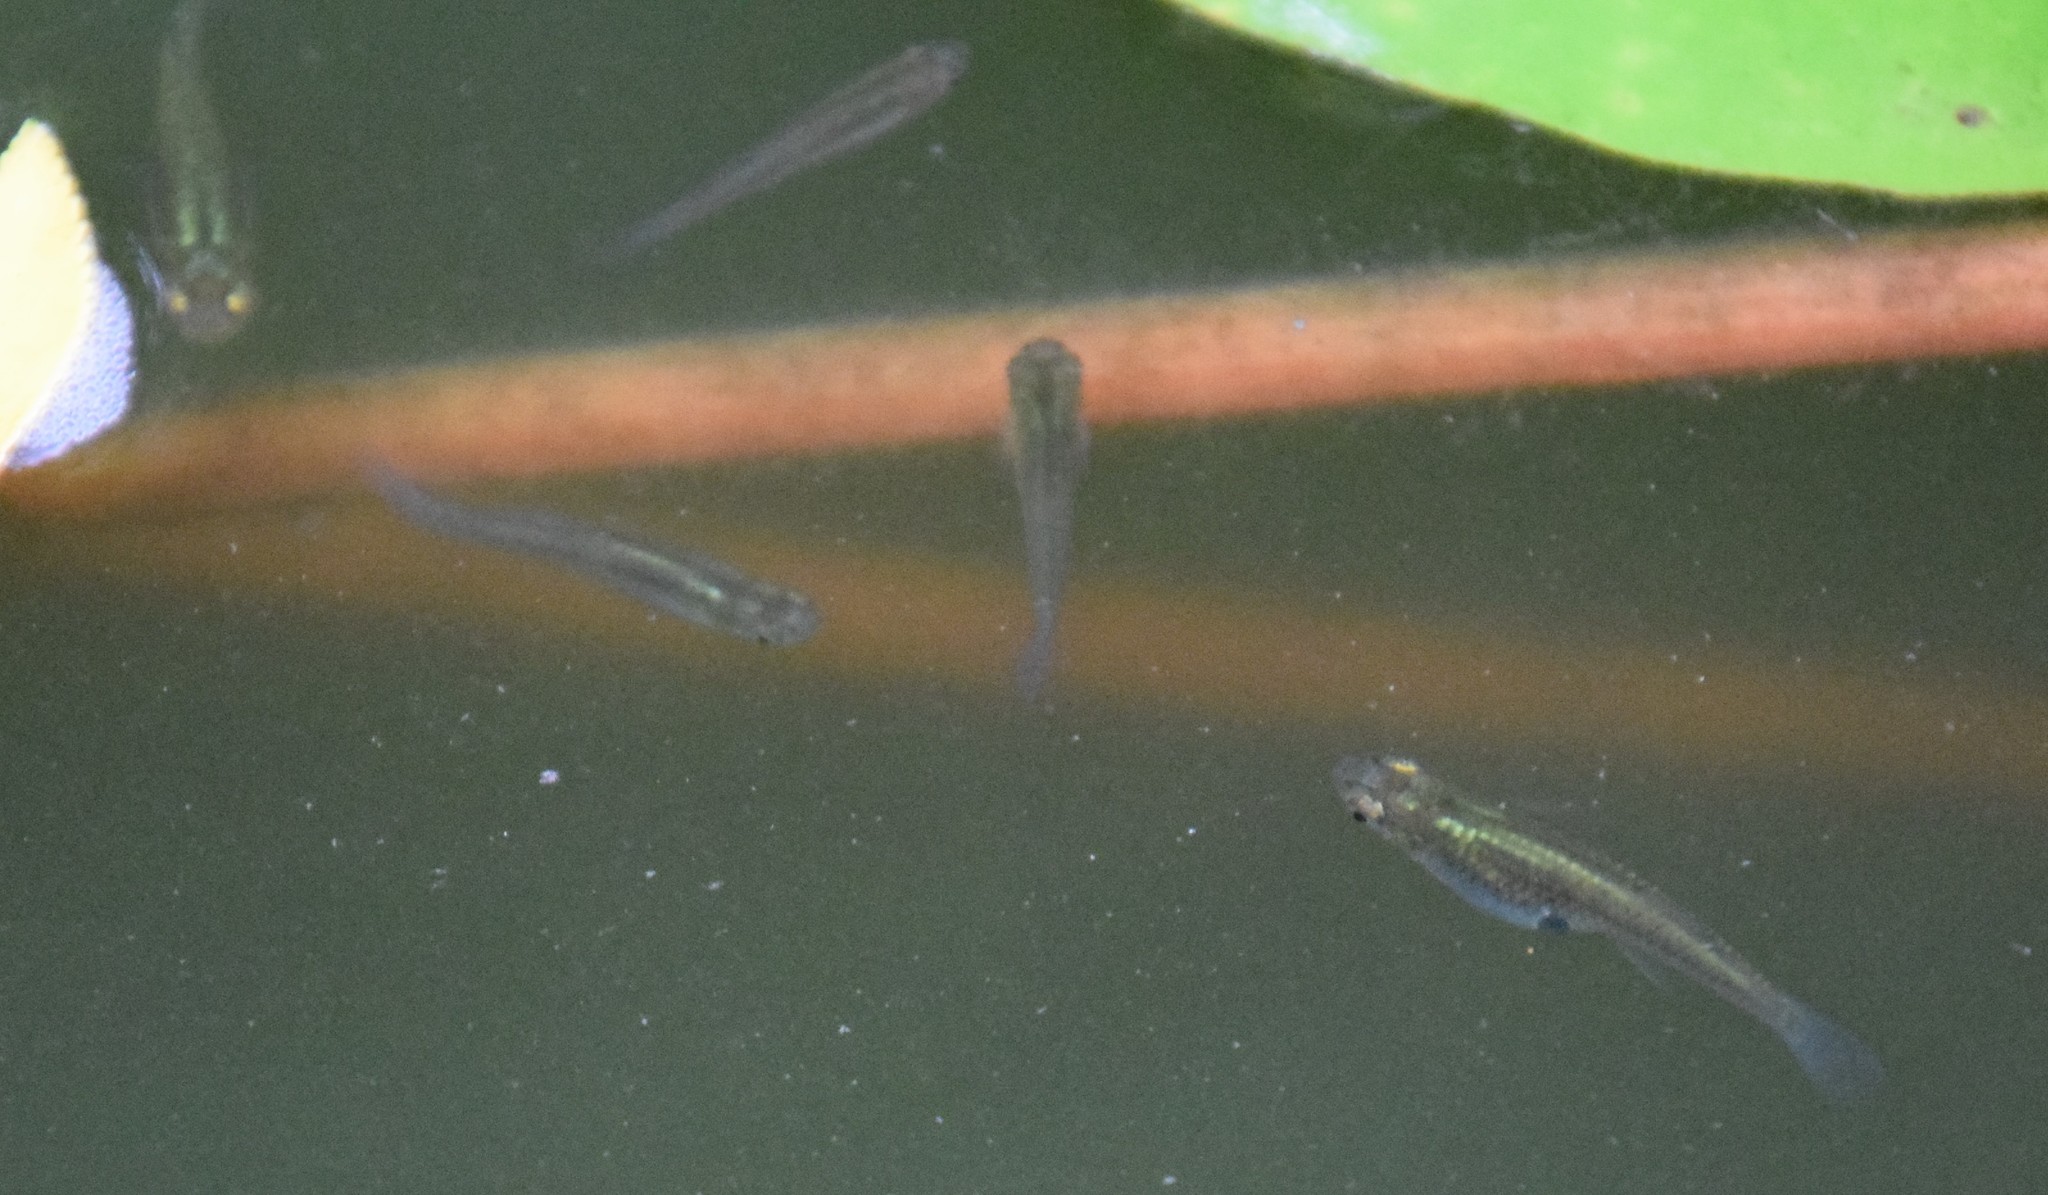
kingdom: Animalia
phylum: Chordata
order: Cyprinodontiformes
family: Poeciliidae
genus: Gambusia
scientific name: Gambusia holbrooki
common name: Eastern mosquitofish
